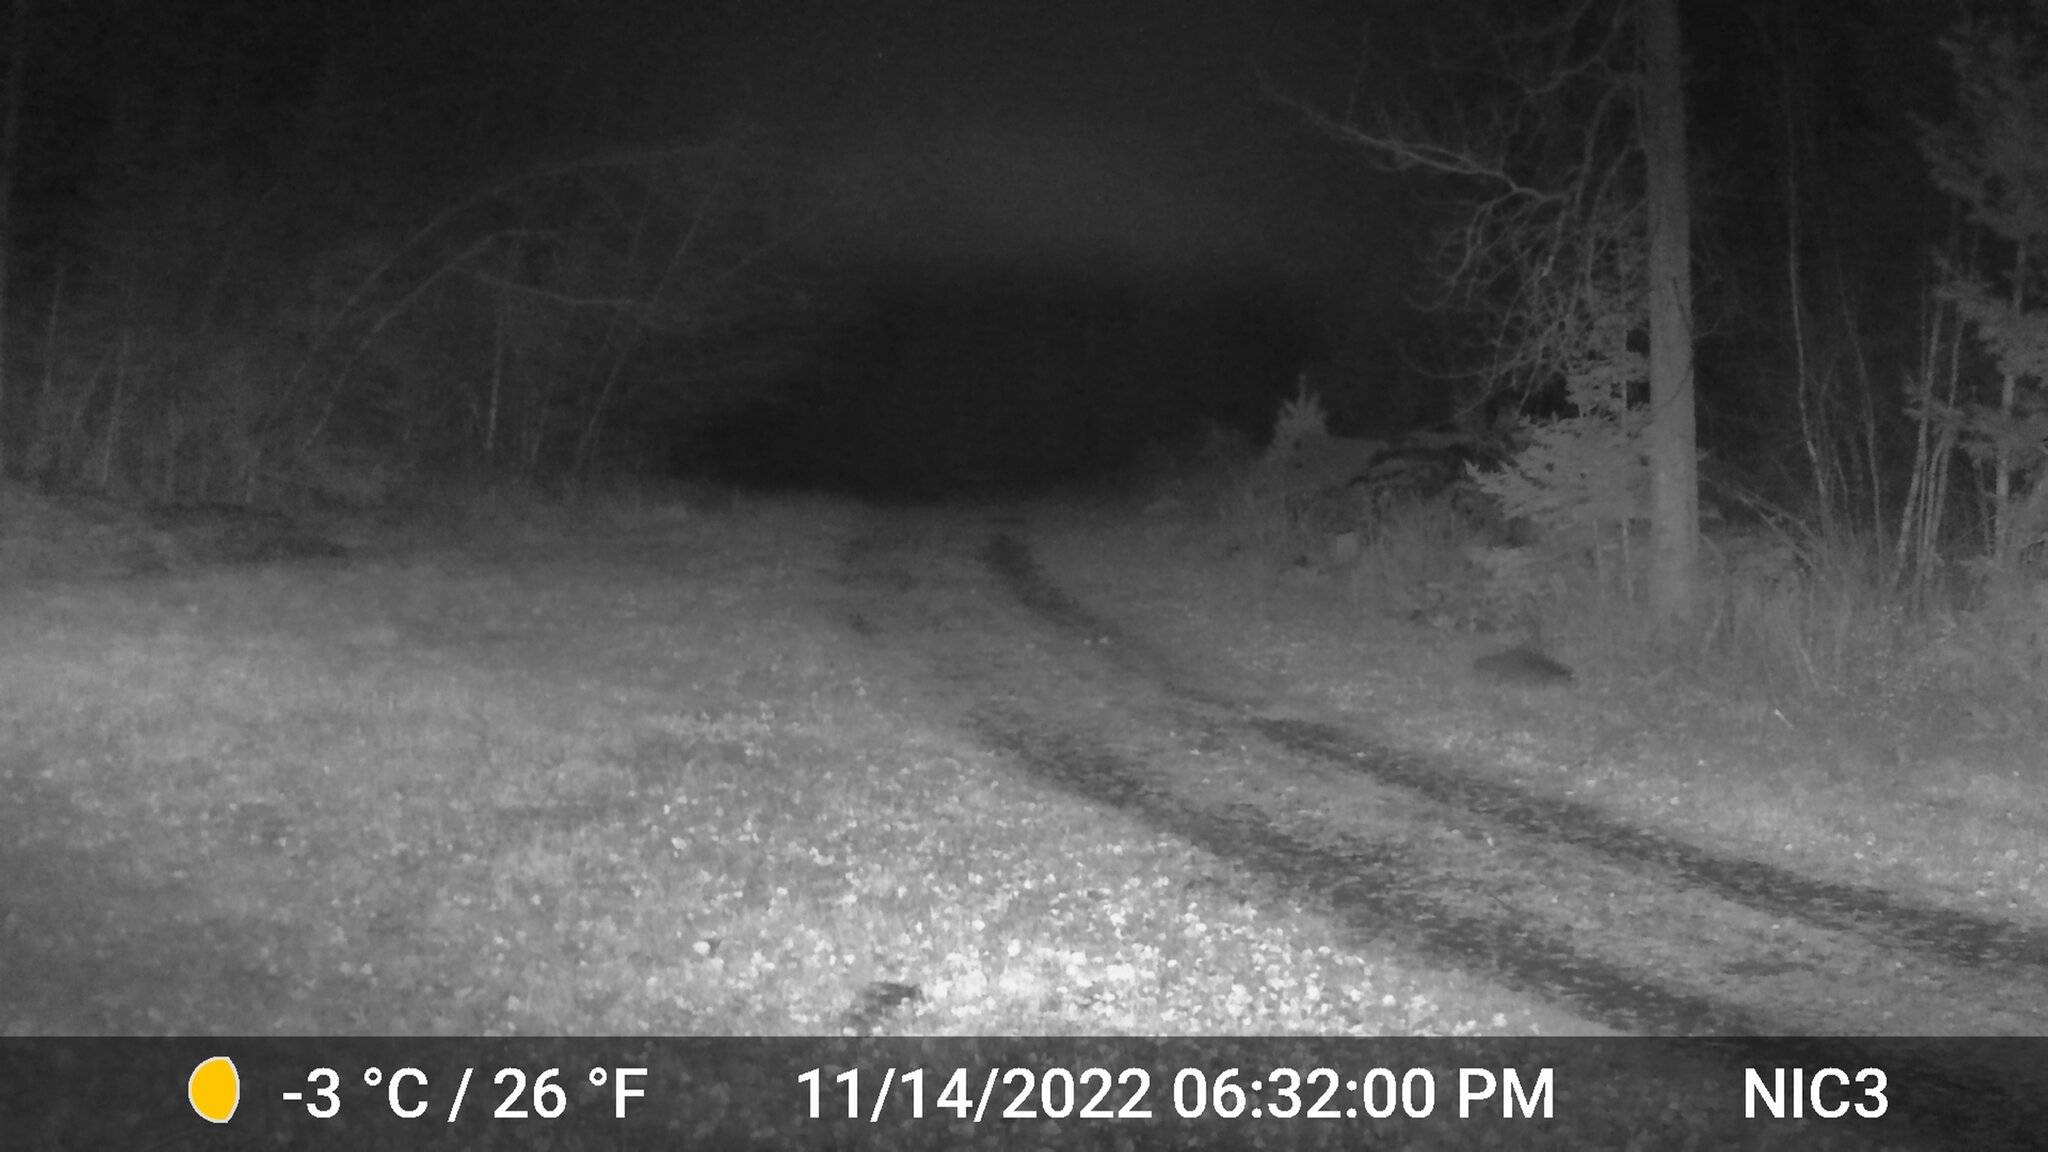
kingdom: Animalia
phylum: Chordata
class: Mammalia
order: Carnivora
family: Procyonidae
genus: Procyon
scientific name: Procyon lotor
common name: Raccoon
